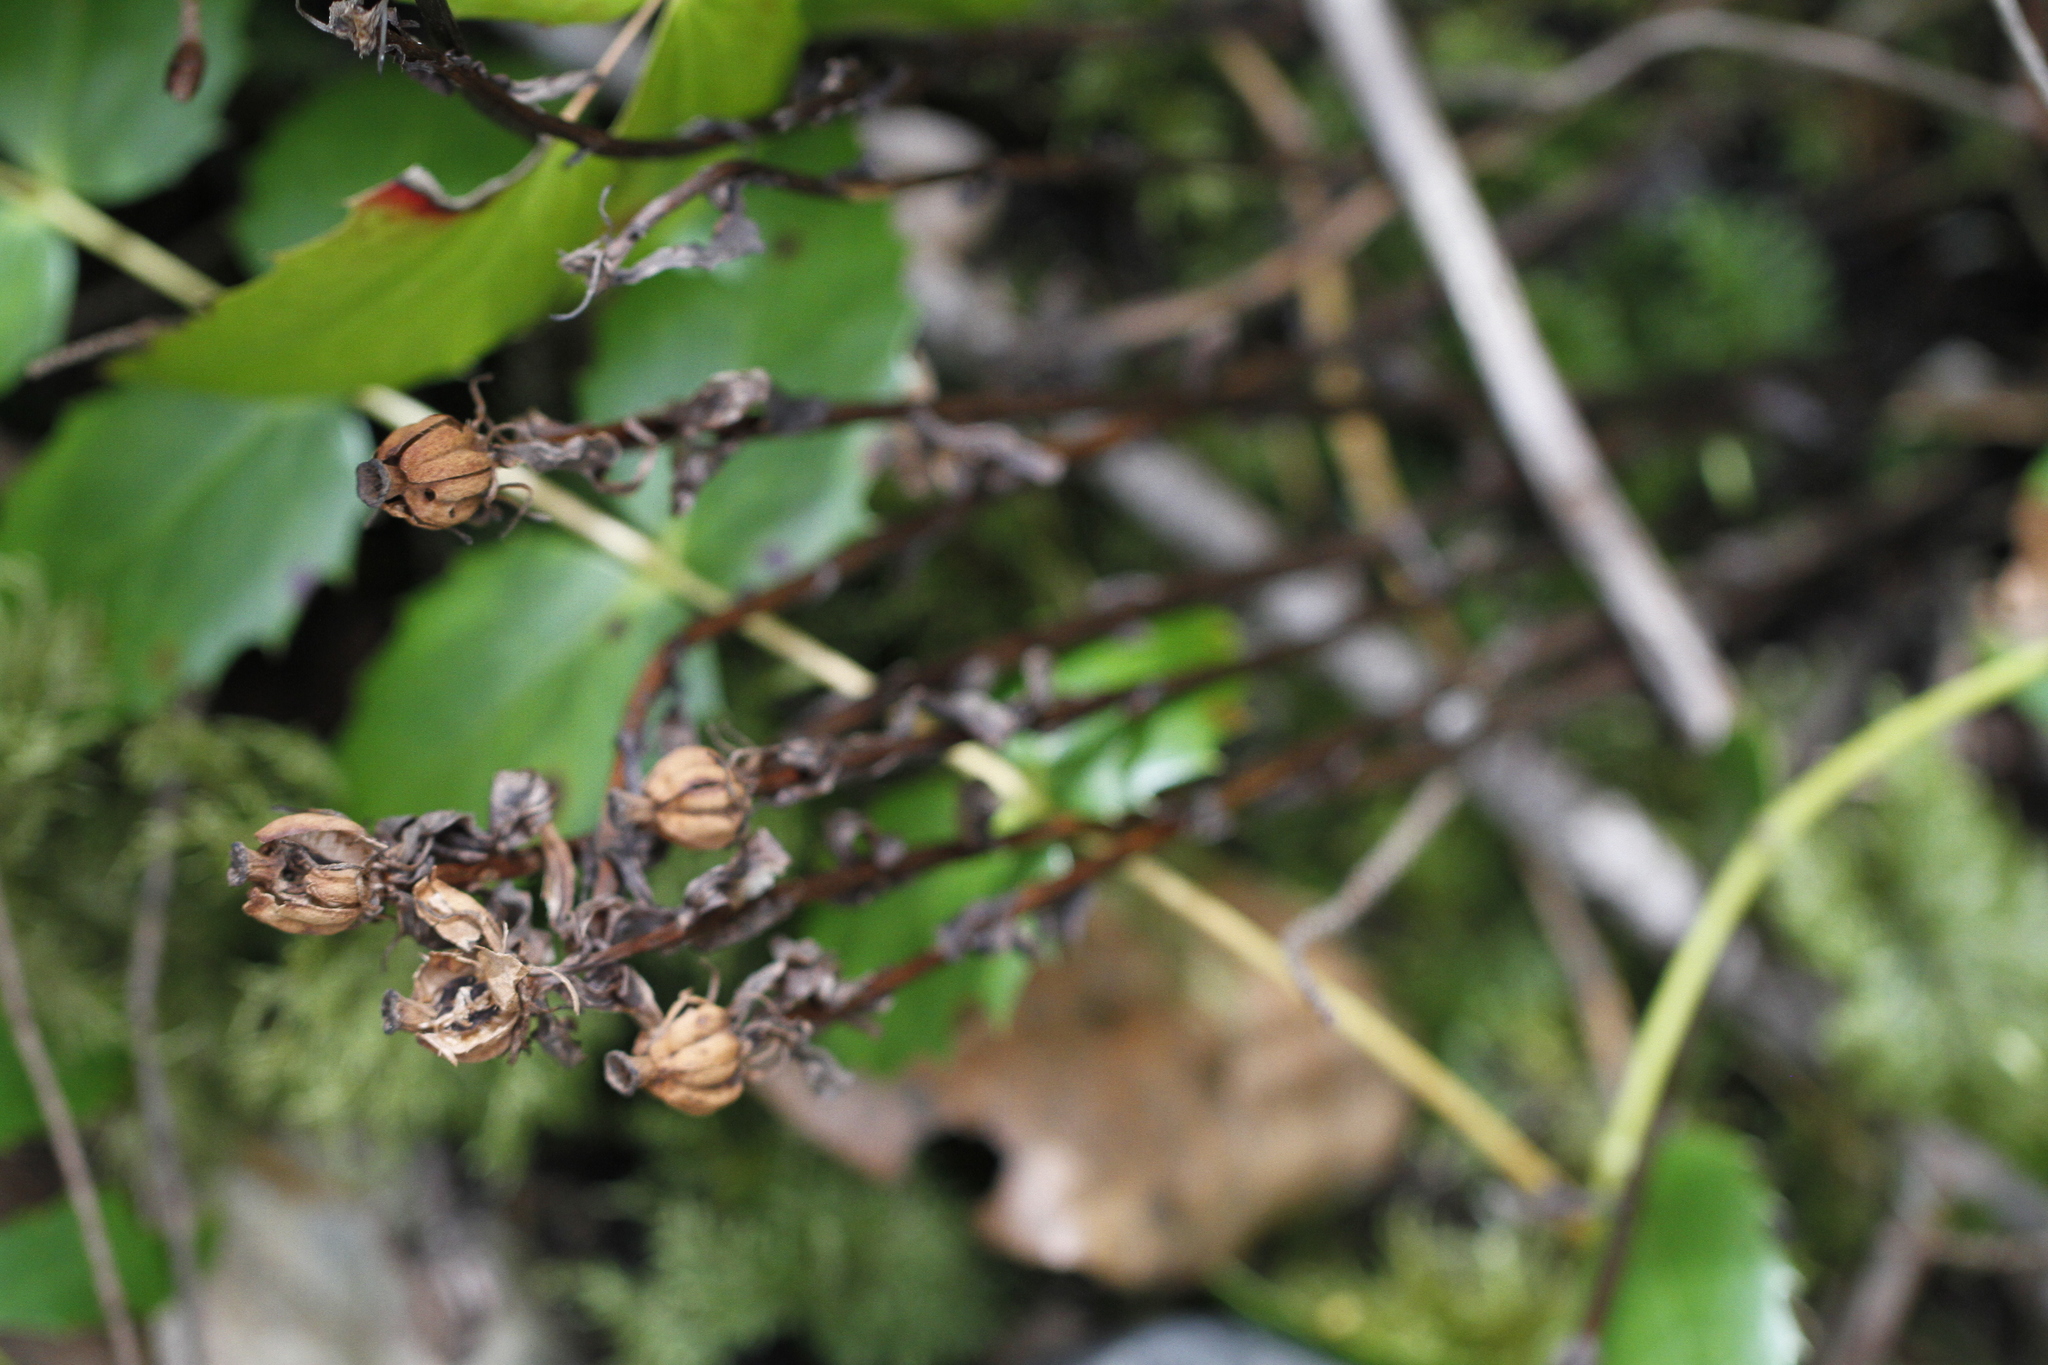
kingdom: Plantae
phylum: Tracheophyta
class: Magnoliopsida
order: Ericales
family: Ericaceae
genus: Monotropa
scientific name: Monotropa uniflora
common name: Convulsion root
